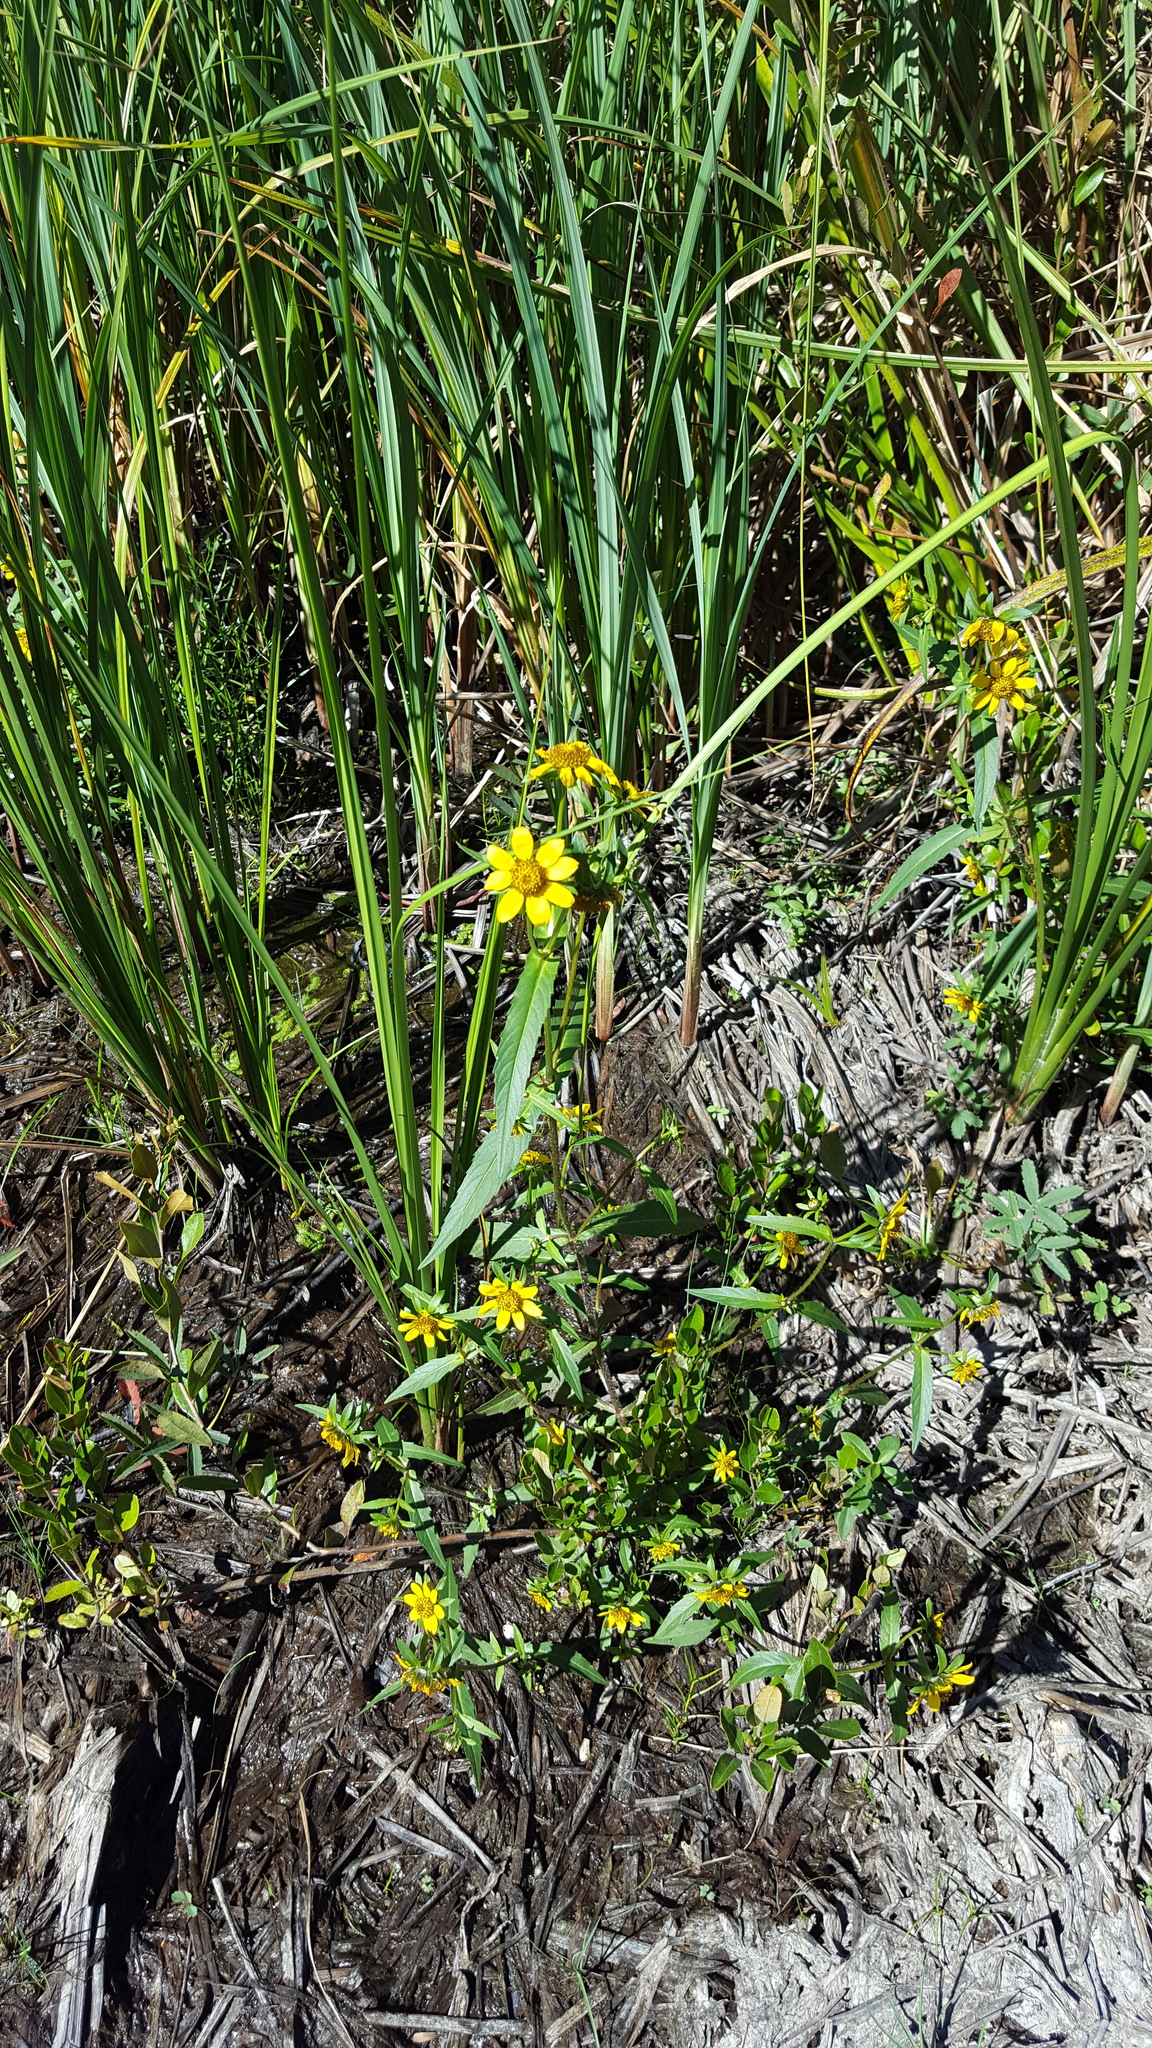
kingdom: Plantae
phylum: Tracheophyta
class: Magnoliopsida
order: Asterales
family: Asteraceae
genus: Bidens
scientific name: Bidens cernua
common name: Nodding bur-marigold
